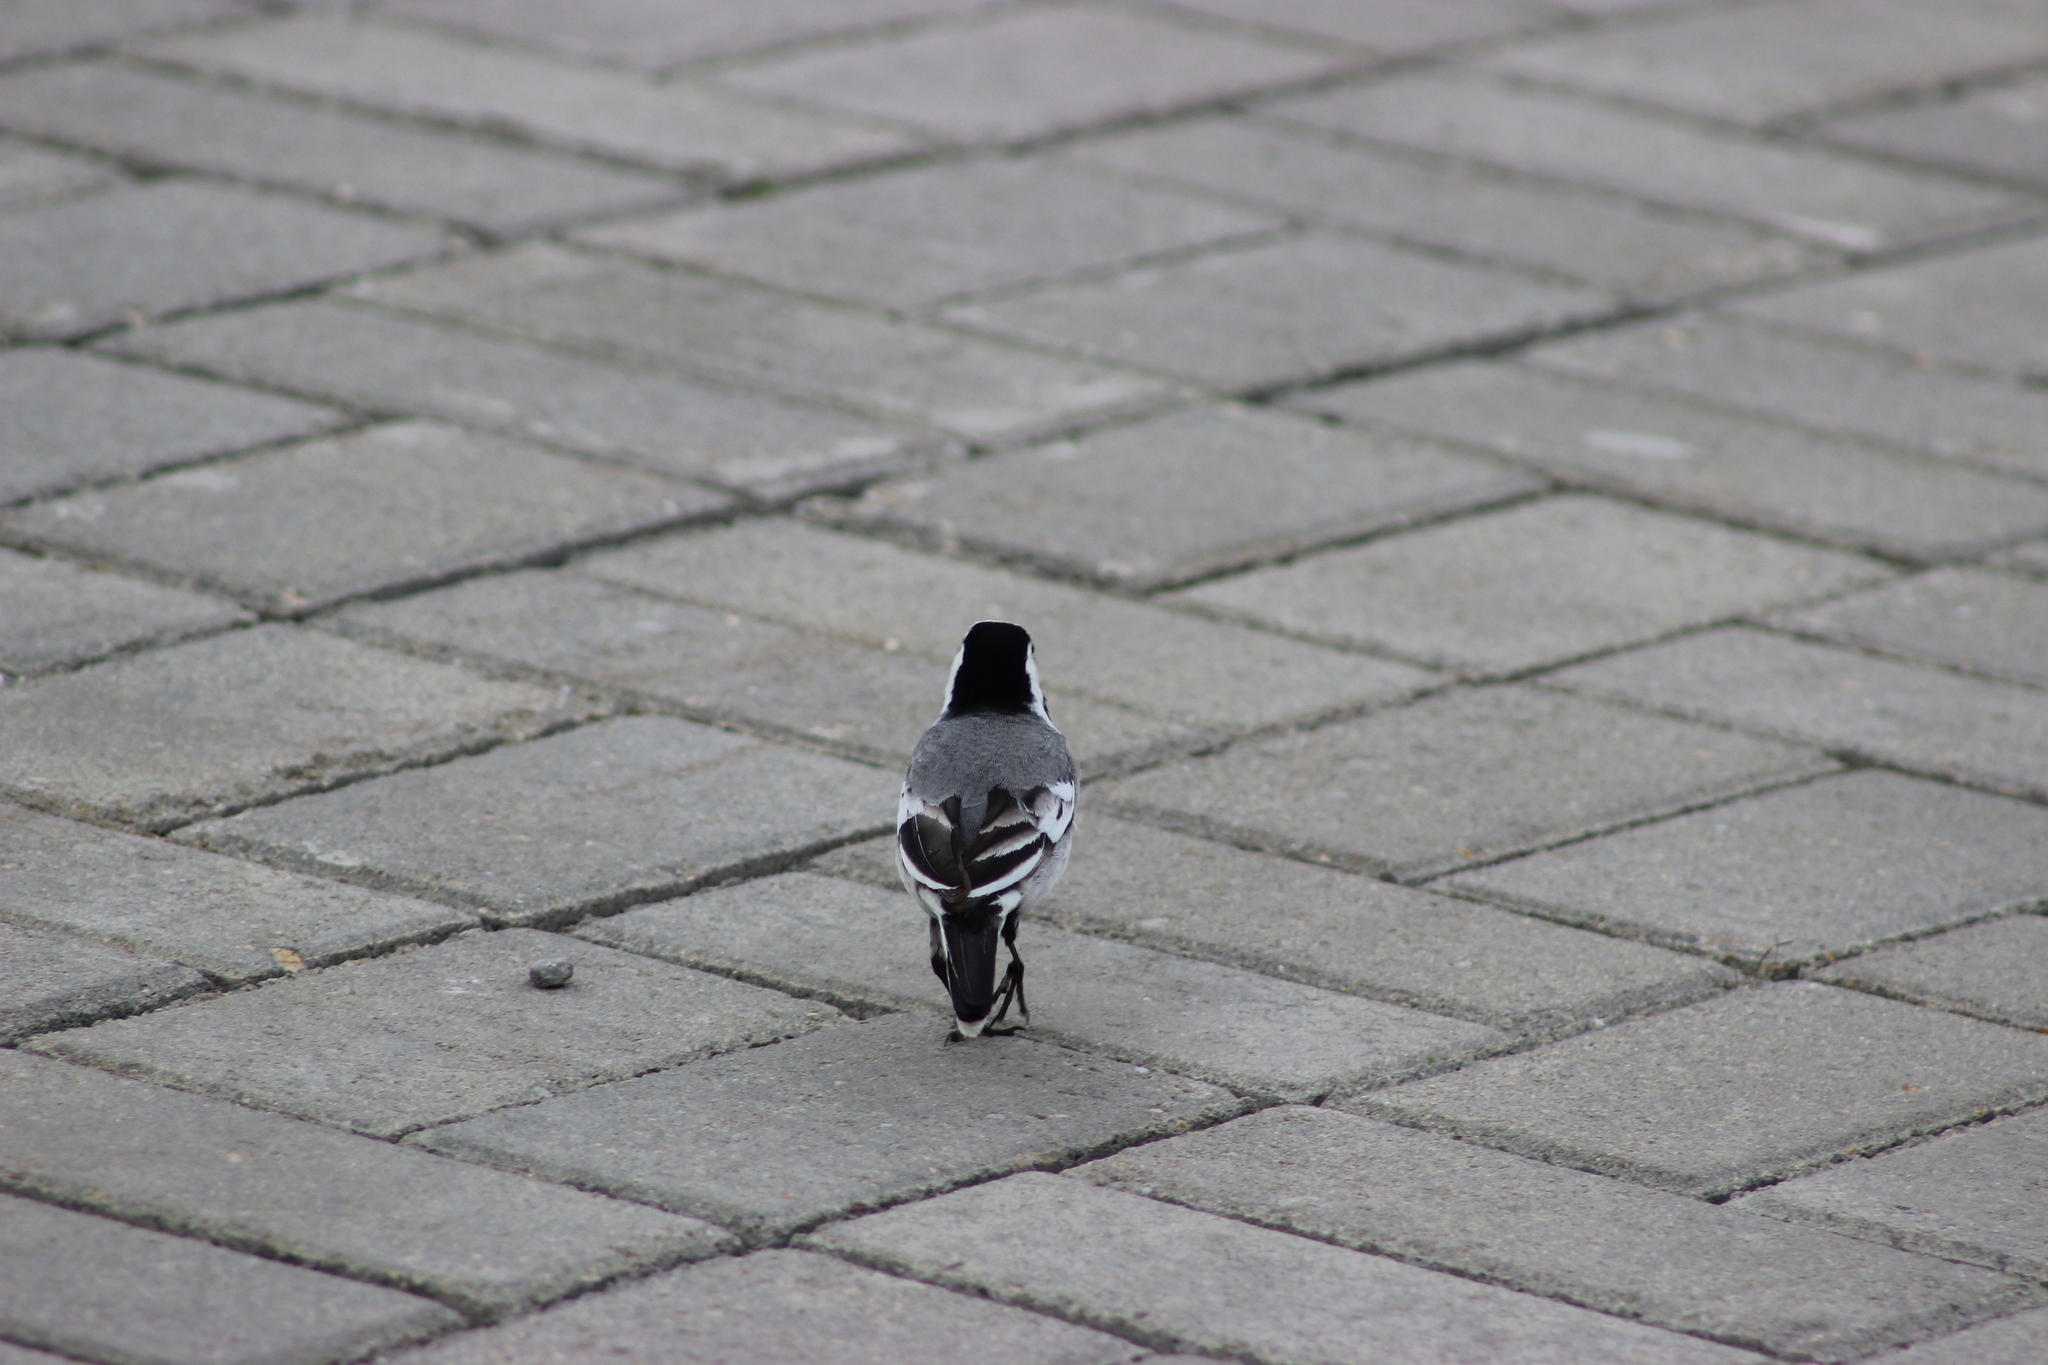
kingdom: Animalia
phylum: Chordata
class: Aves
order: Passeriformes
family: Motacillidae
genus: Motacilla
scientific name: Motacilla alba
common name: White wagtail
